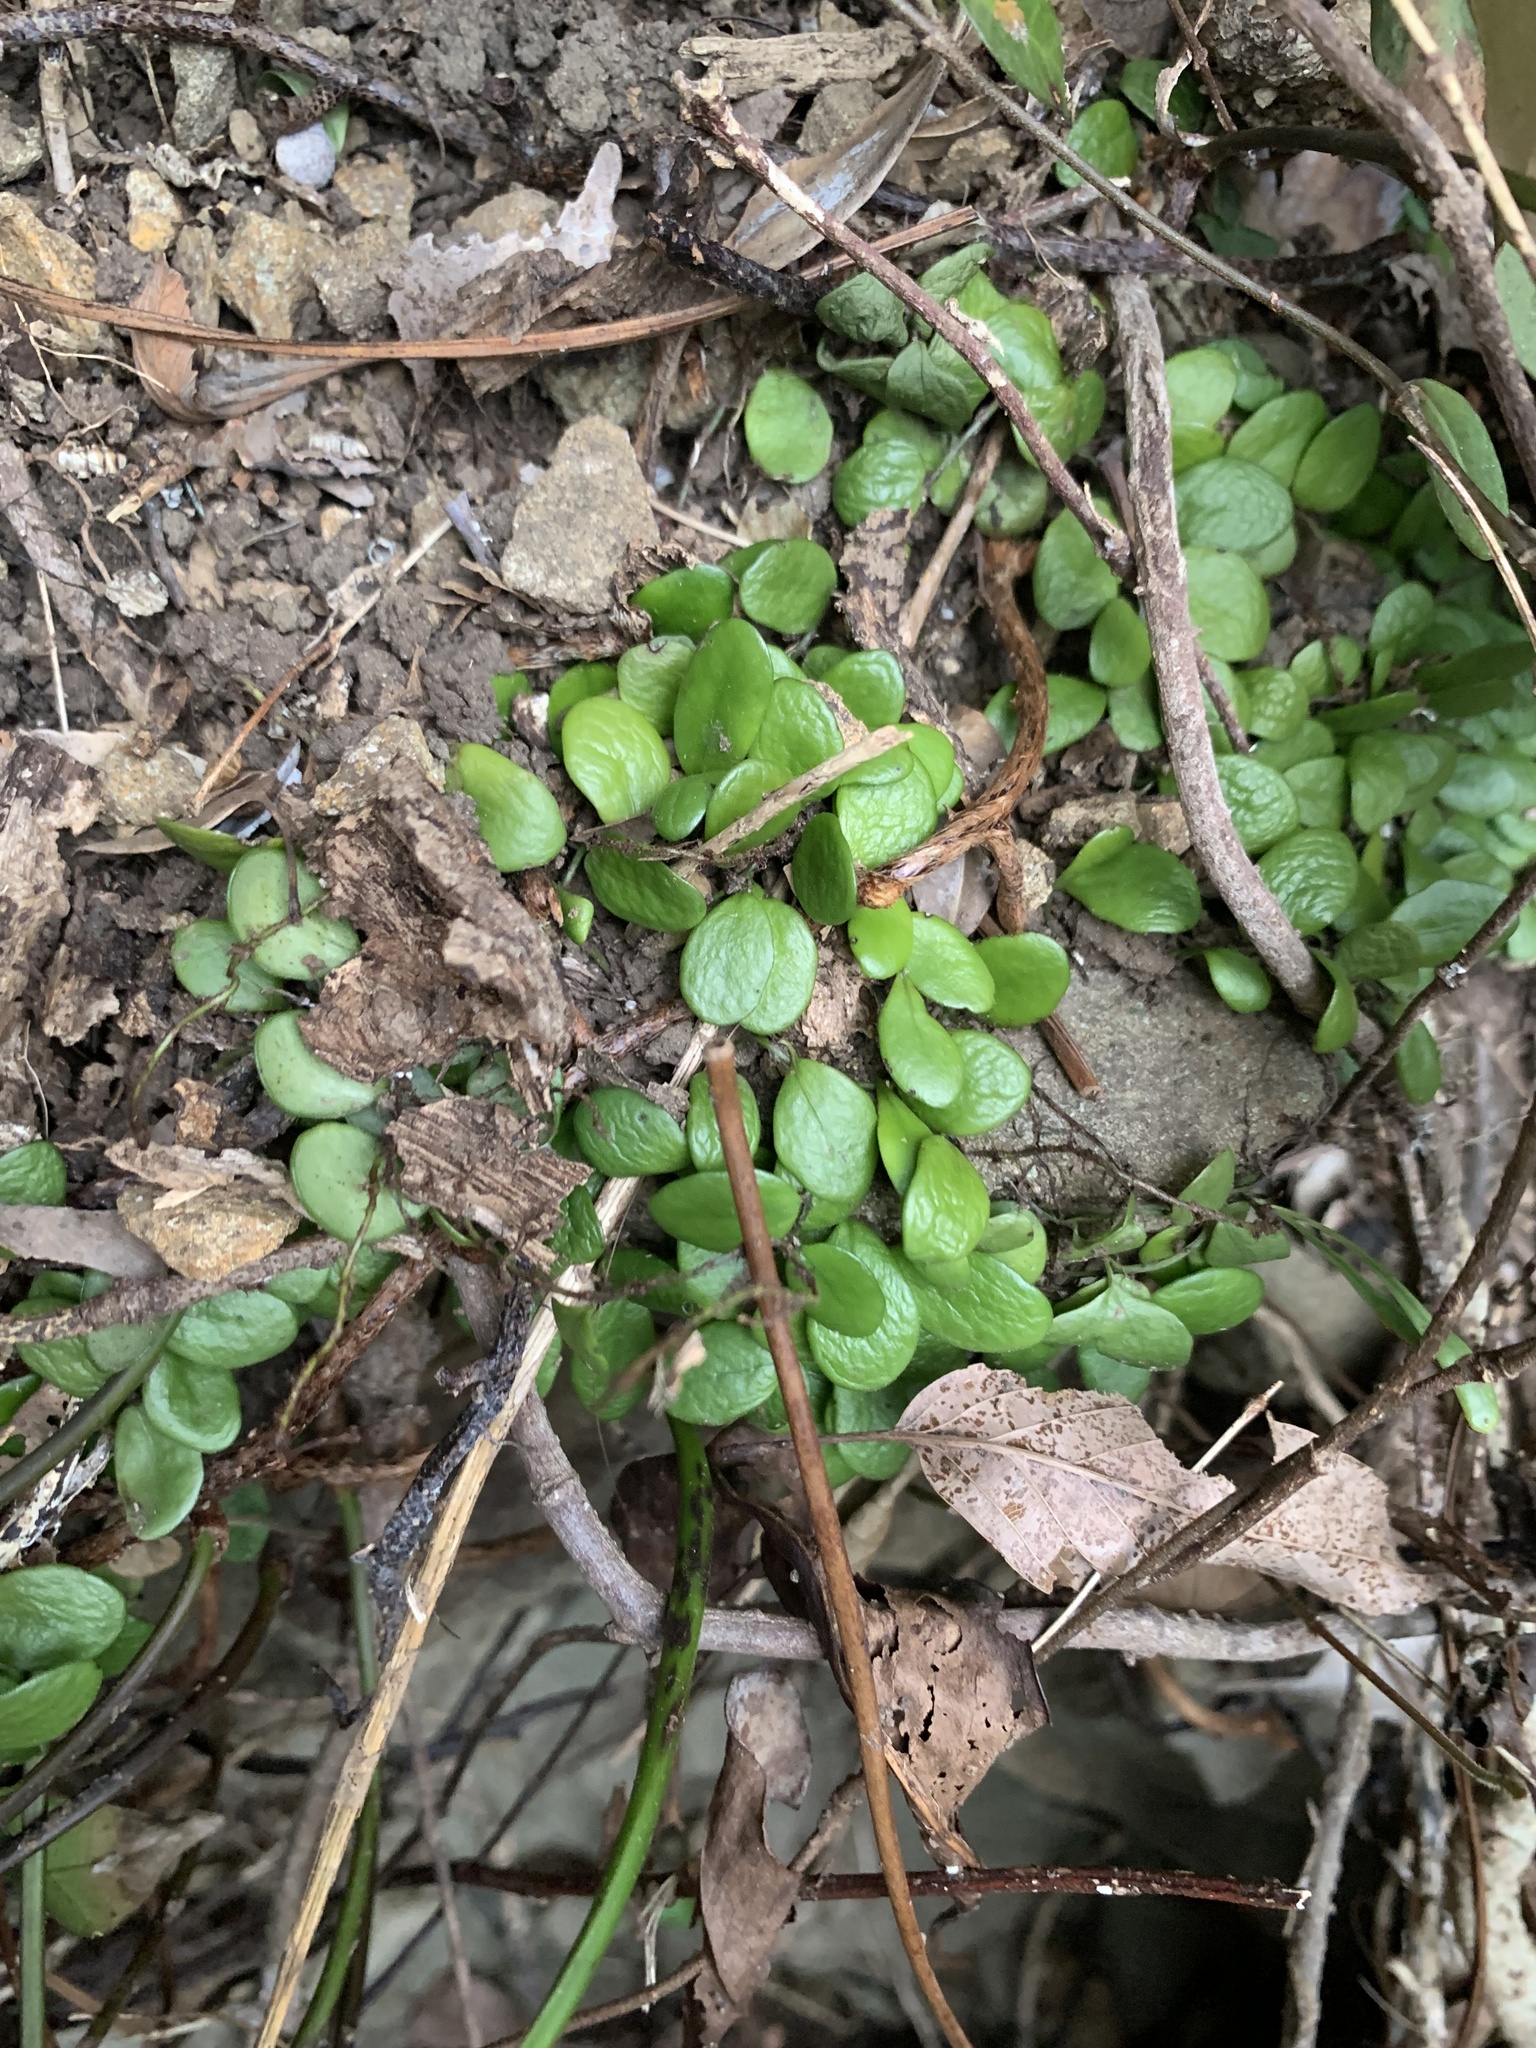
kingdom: Plantae
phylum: Tracheophyta
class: Polypodiopsida
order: Polypodiales
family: Polypodiaceae
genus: Lepisorus
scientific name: Lepisorus microphyllus
